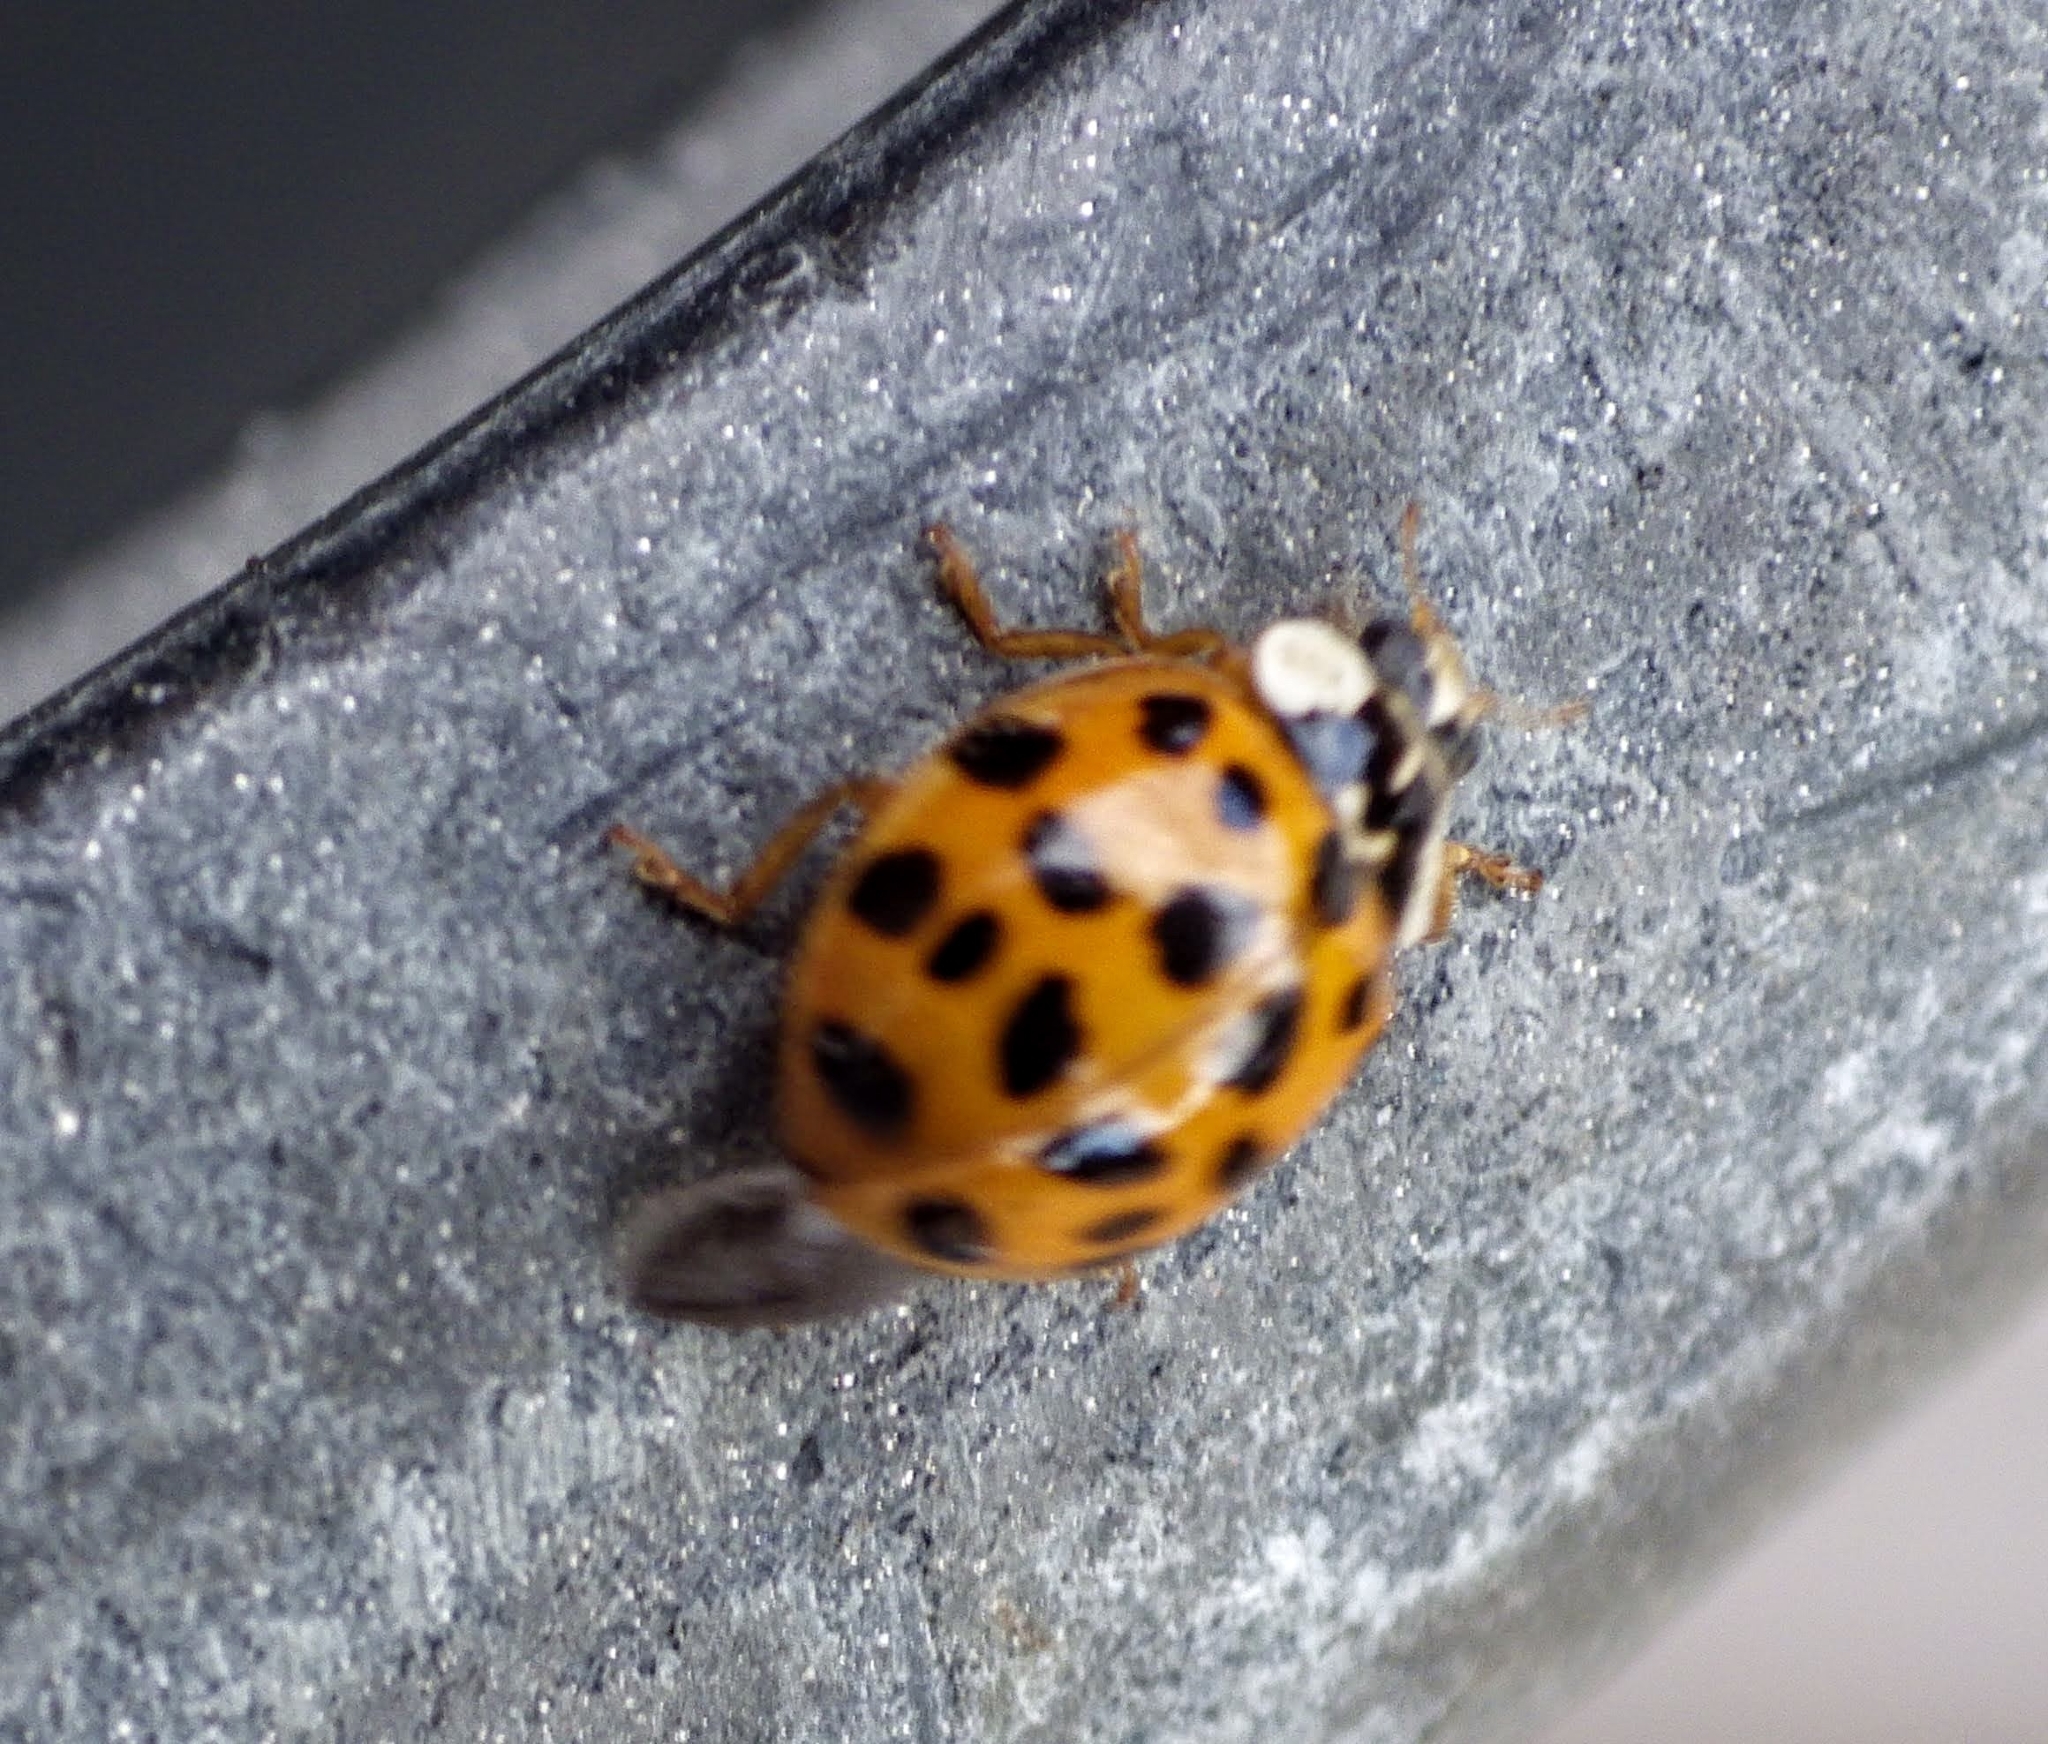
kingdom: Animalia
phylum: Arthropoda
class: Insecta
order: Coleoptera
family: Coccinellidae
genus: Harmonia
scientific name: Harmonia axyridis
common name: Harlequin ladybird
